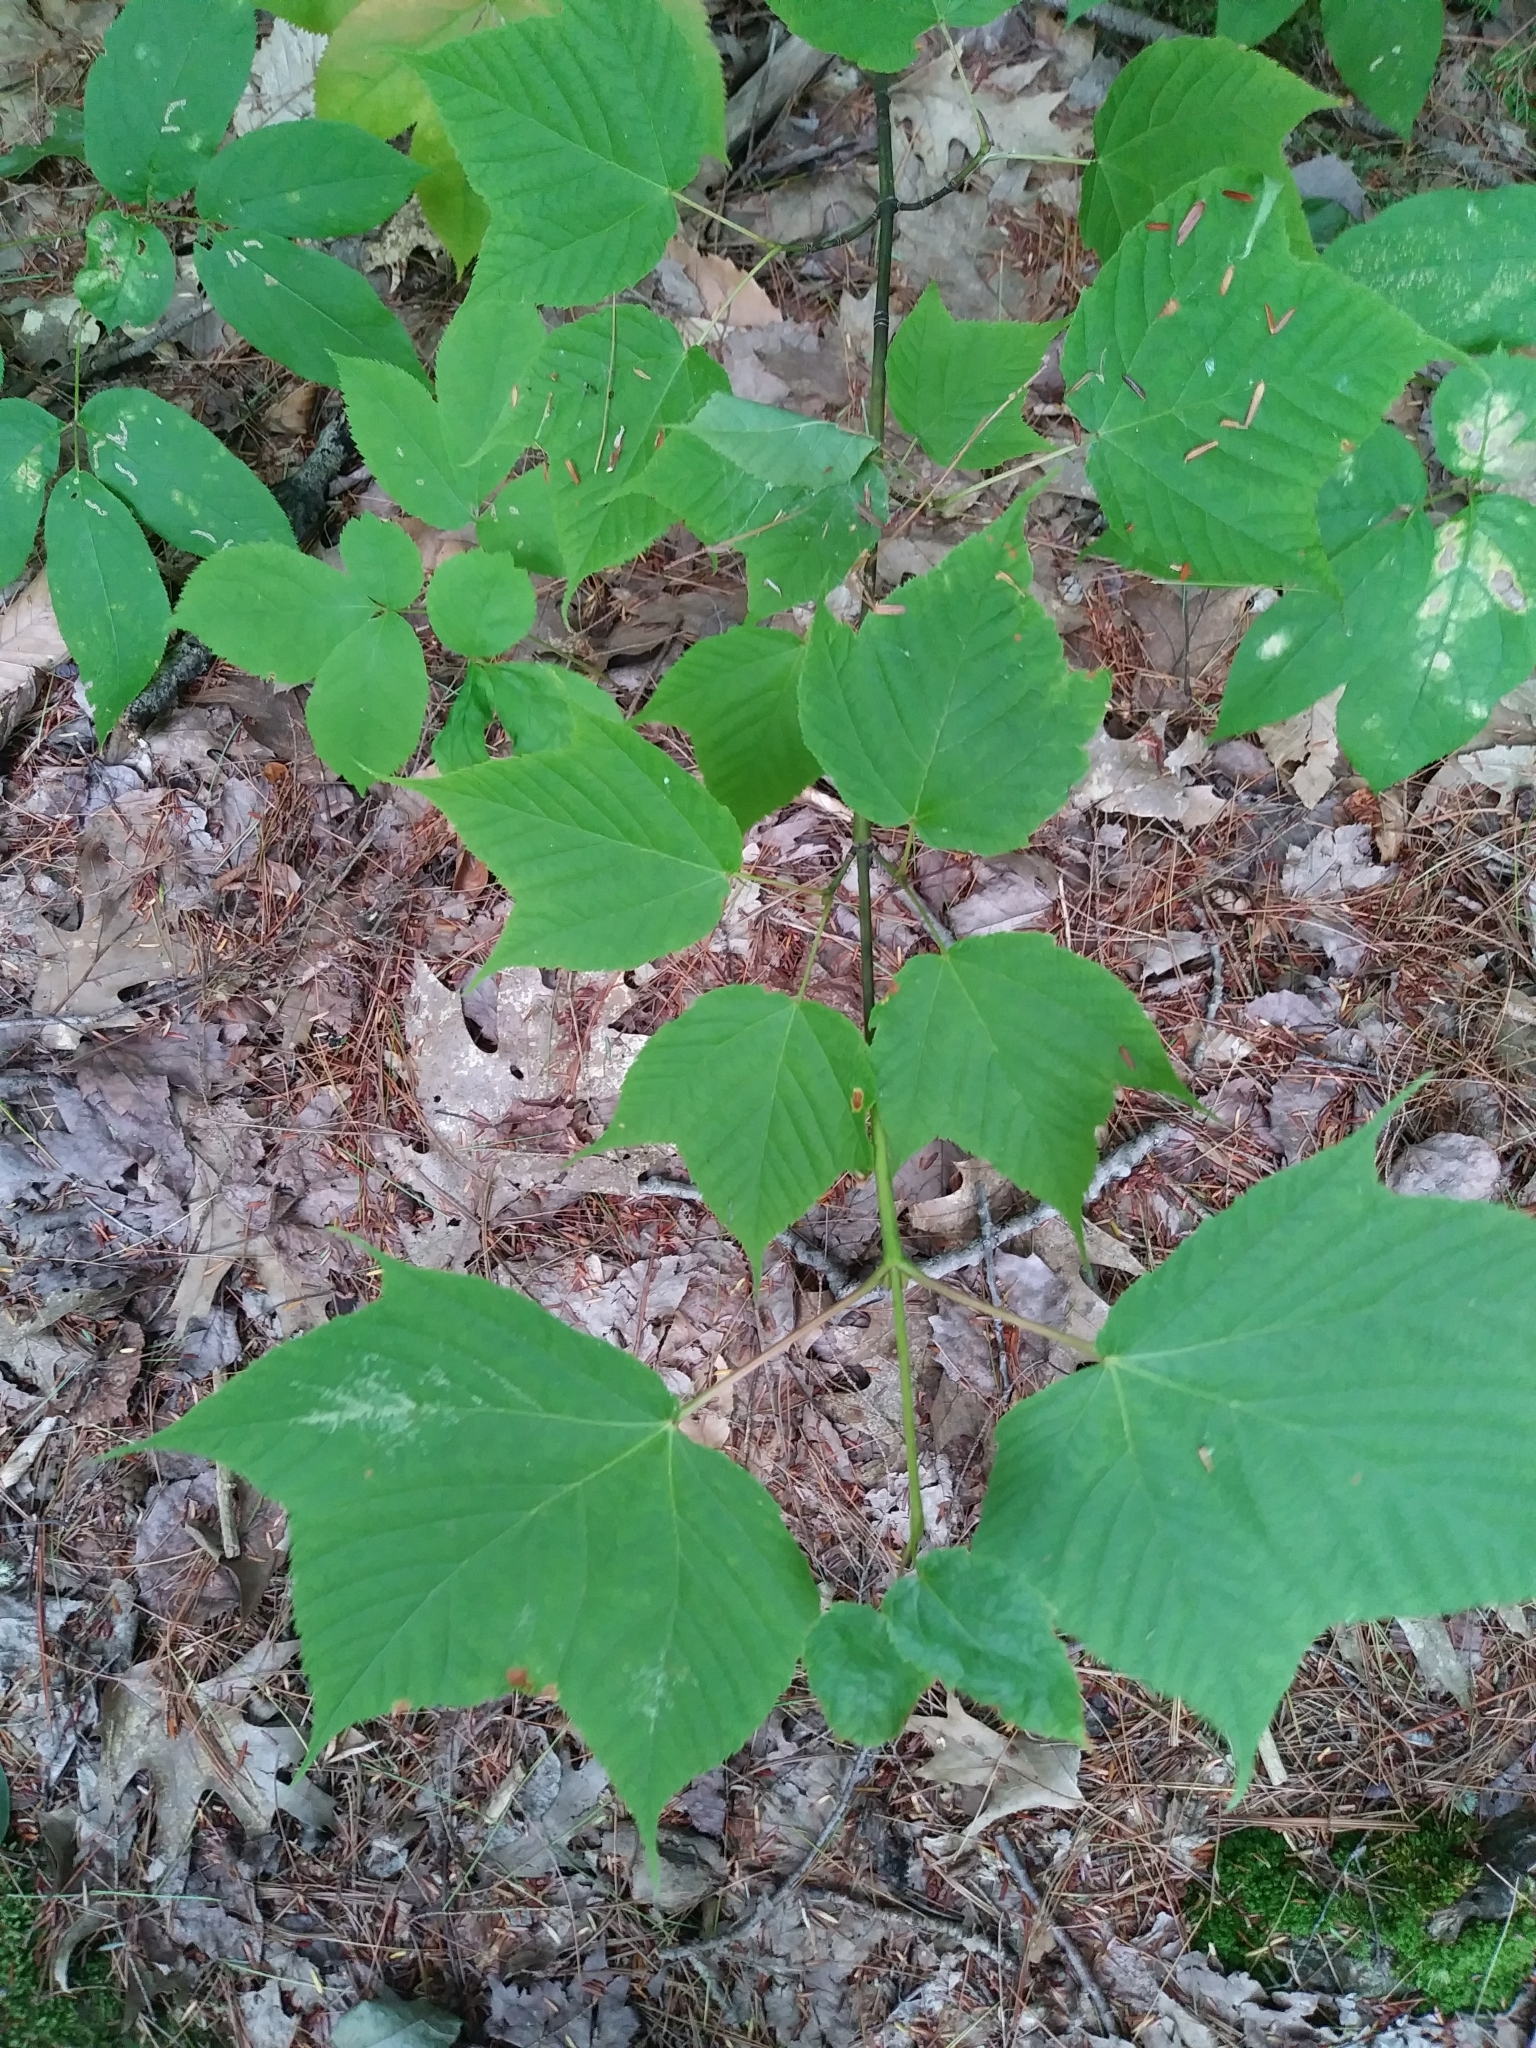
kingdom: Plantae
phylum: Tracheophyta
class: Magnoliopsida
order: Sapindales
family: Sapindaceae
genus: Acer
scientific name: Acer pensylvanicum
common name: Moosewood
